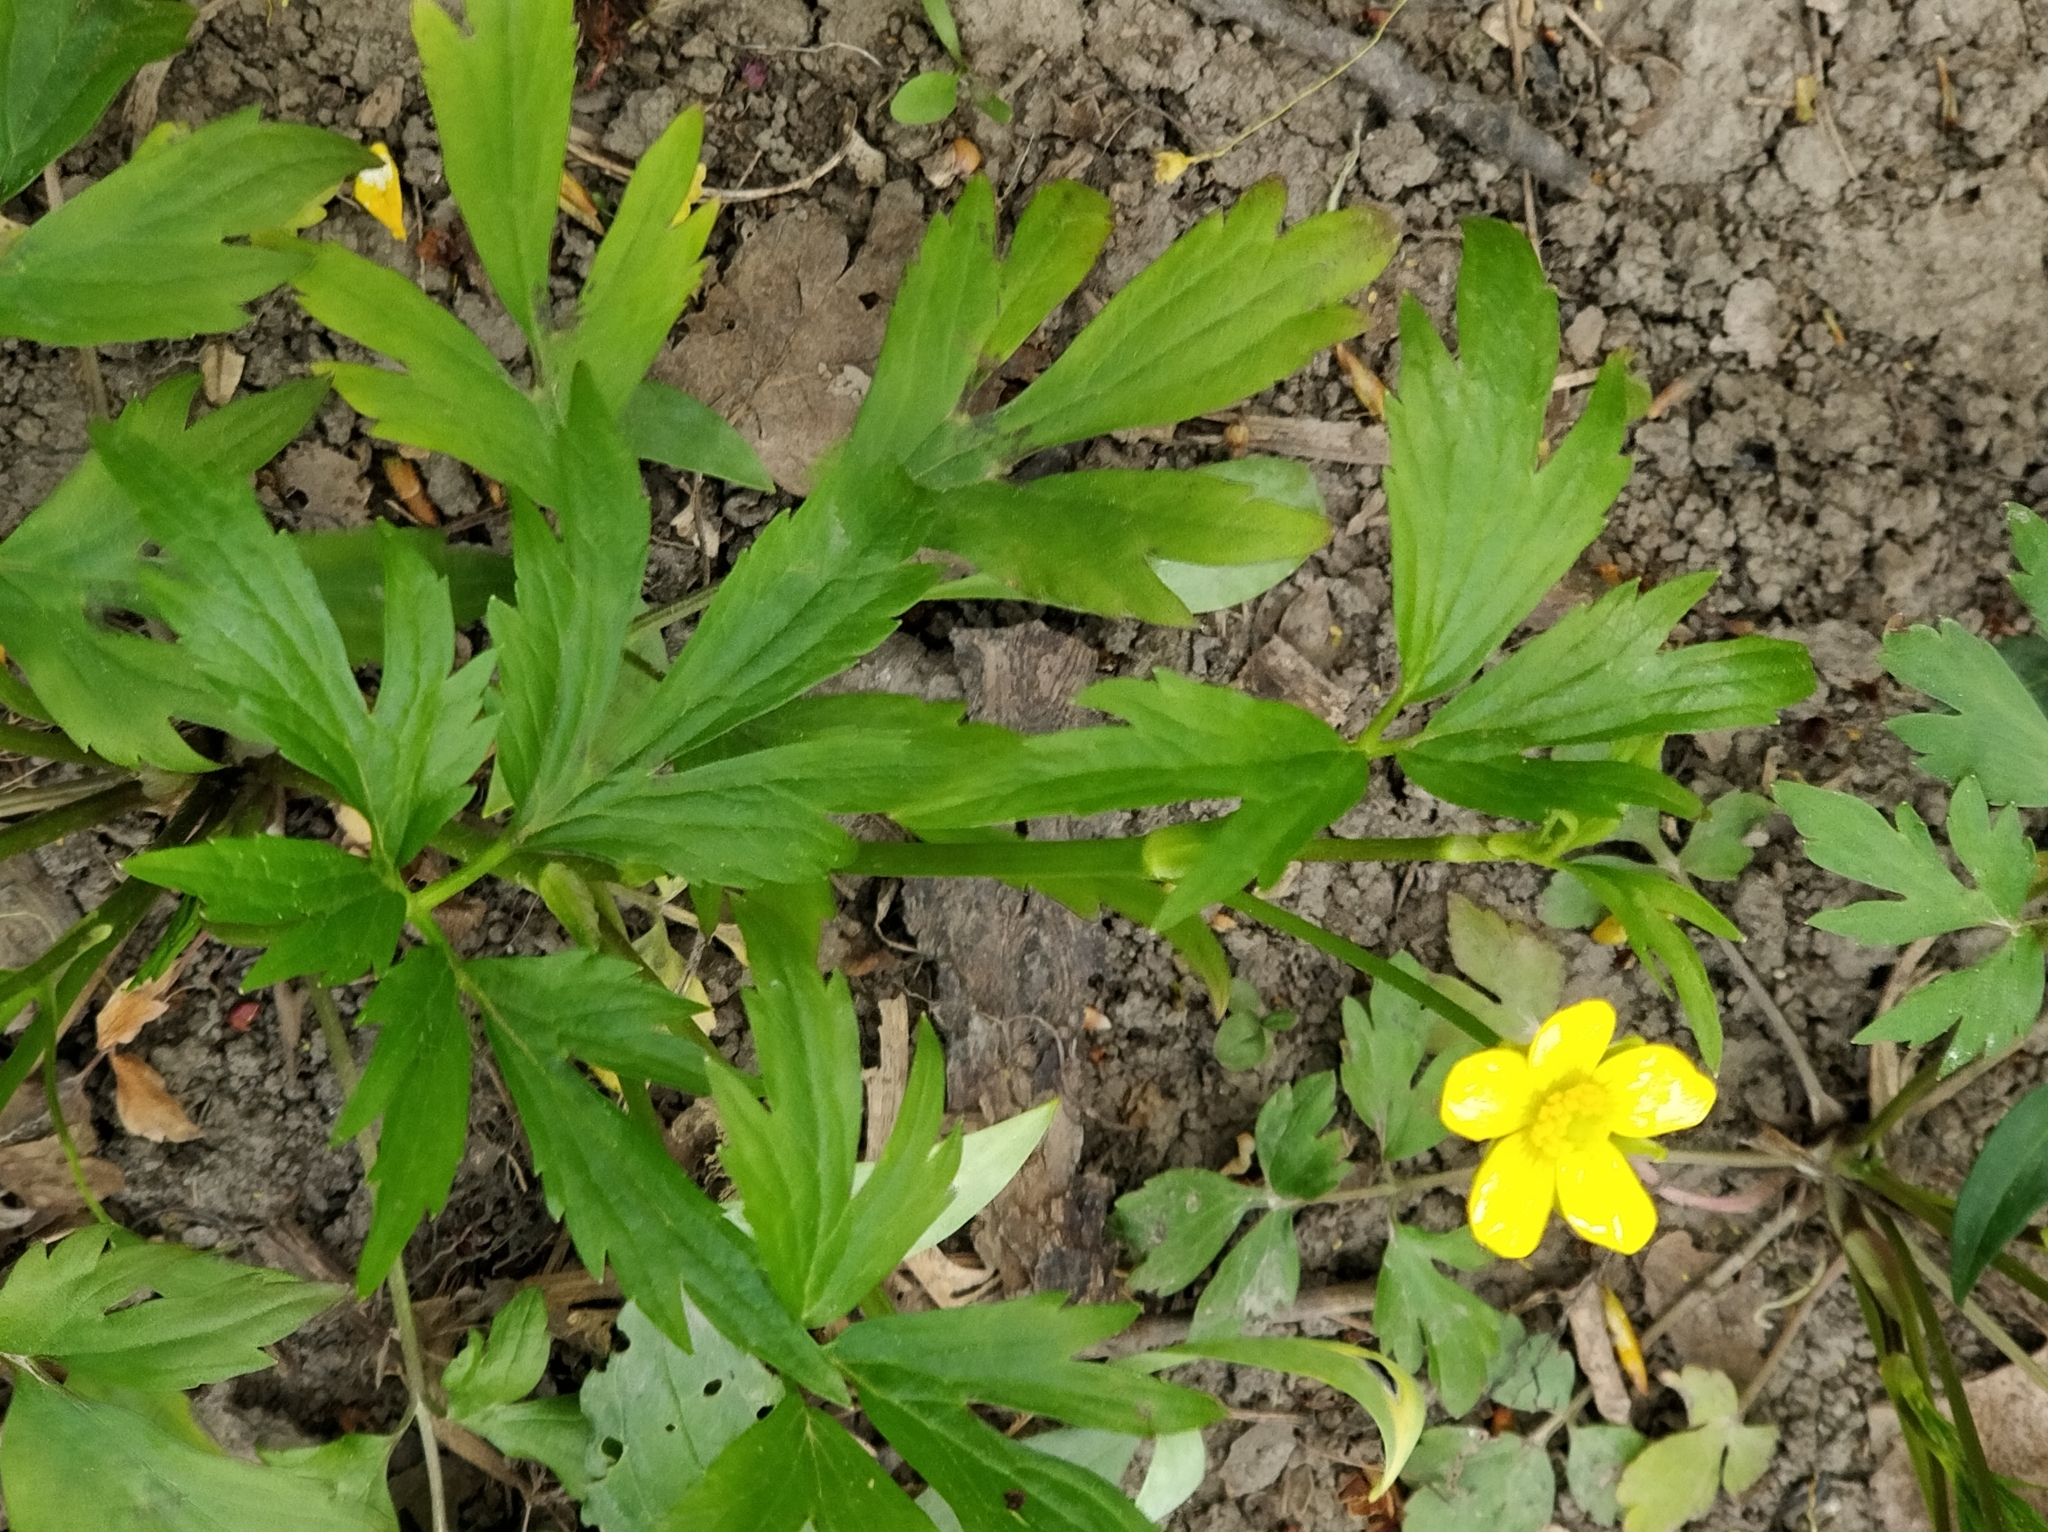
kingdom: Plantae
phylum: Tracheophyta
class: Magnoliopsida
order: Ranunculales
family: Ranunculaceae
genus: Ranunculus
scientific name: Ranunculus hispidus
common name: Bristly buttercup
